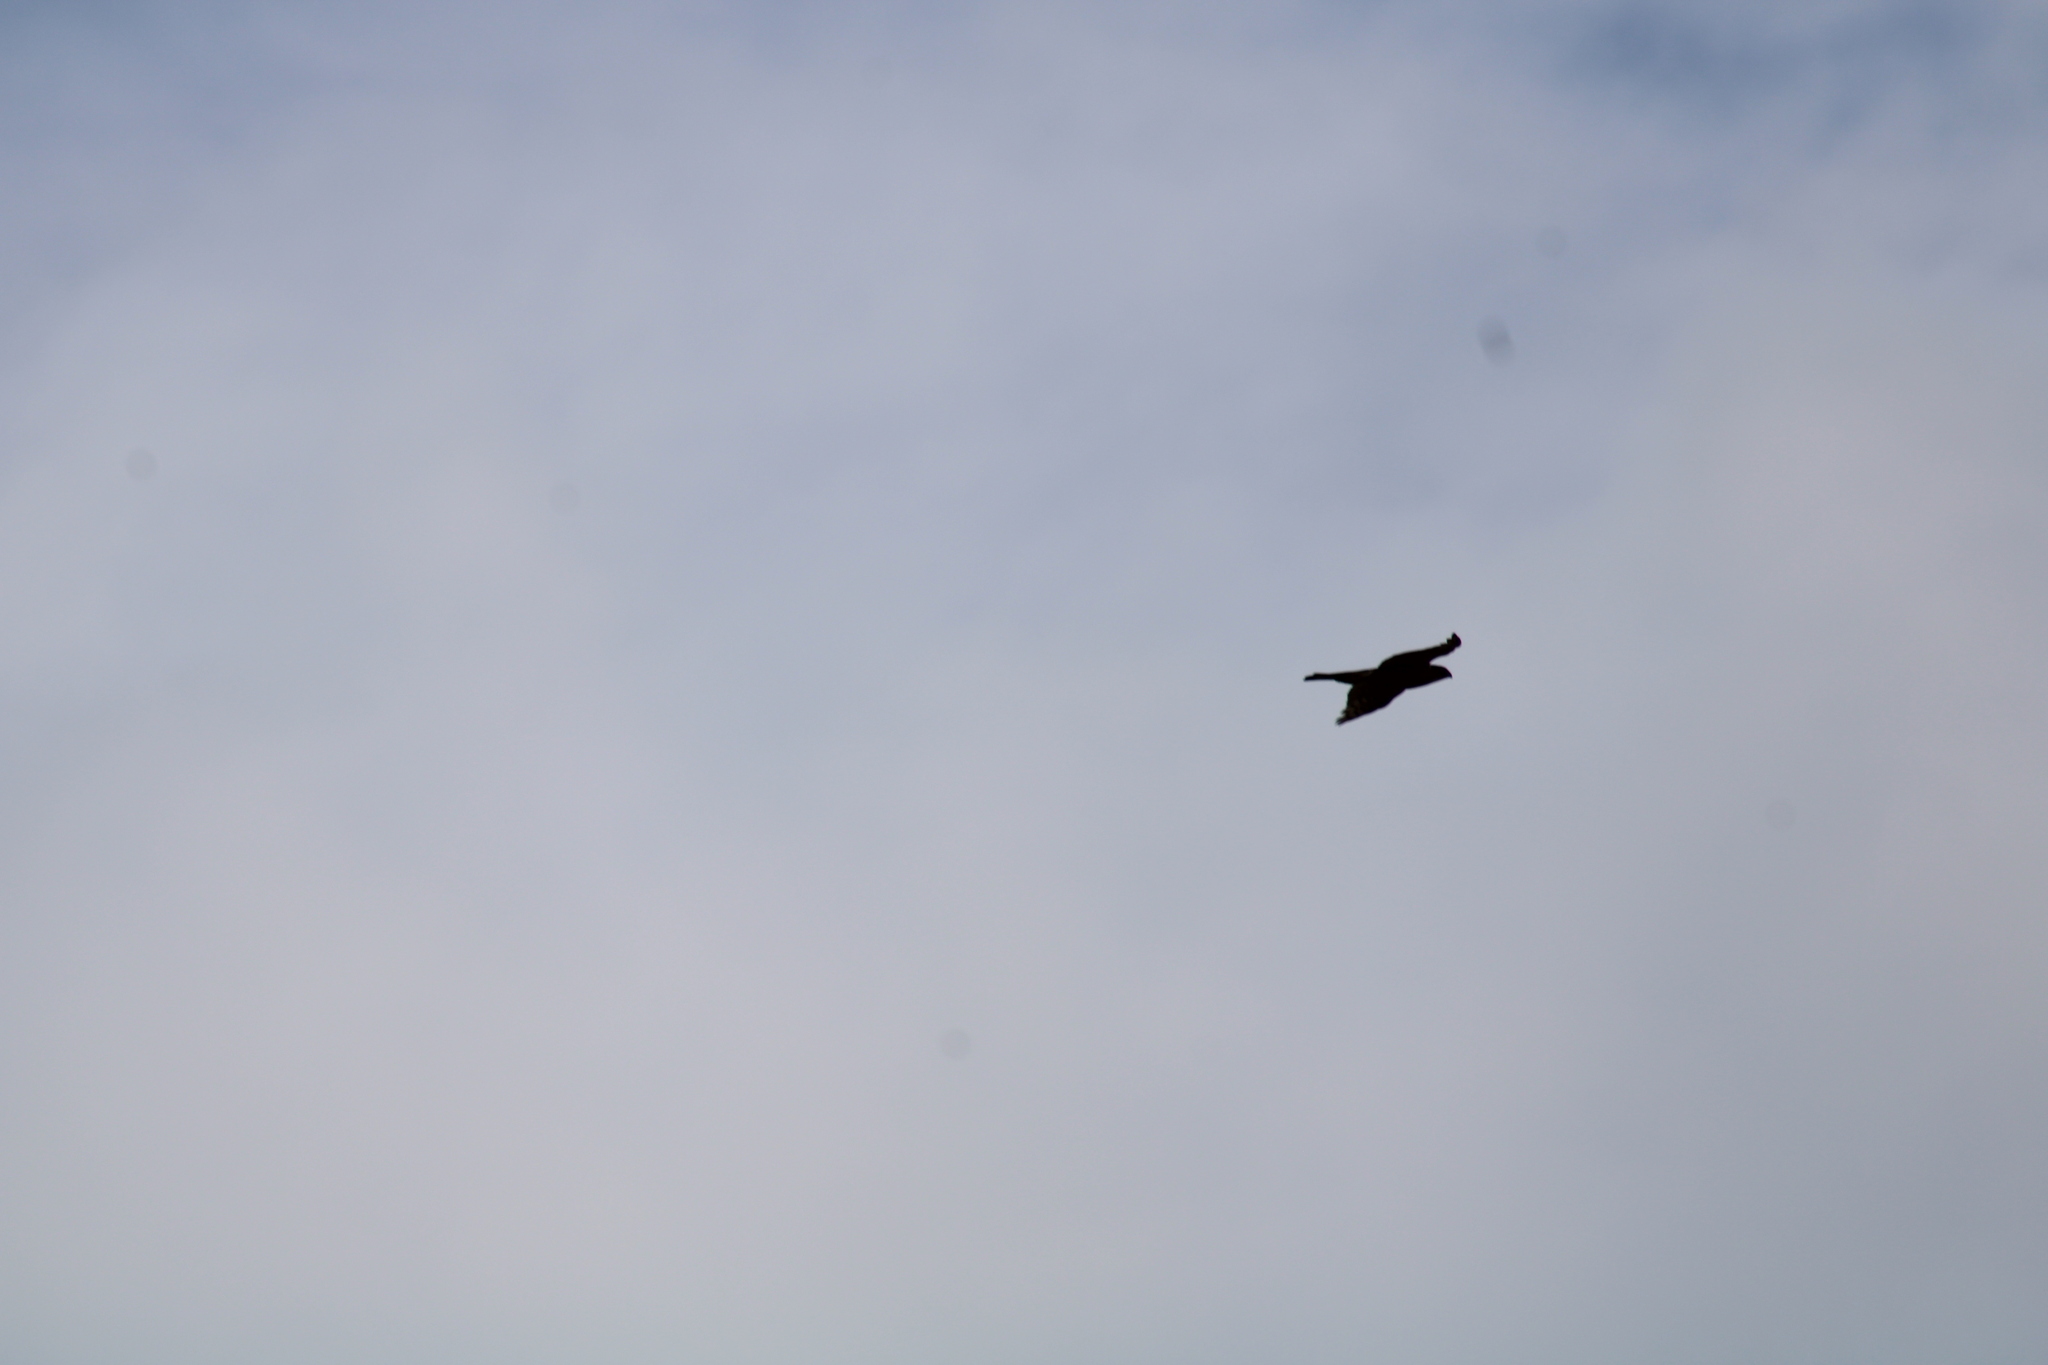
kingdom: Animalia
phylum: Chordata
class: Aves
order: Accipitriformes
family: Accipitridae
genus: Accipiter
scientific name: Accipiter cooperii
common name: Cooper's hawk
